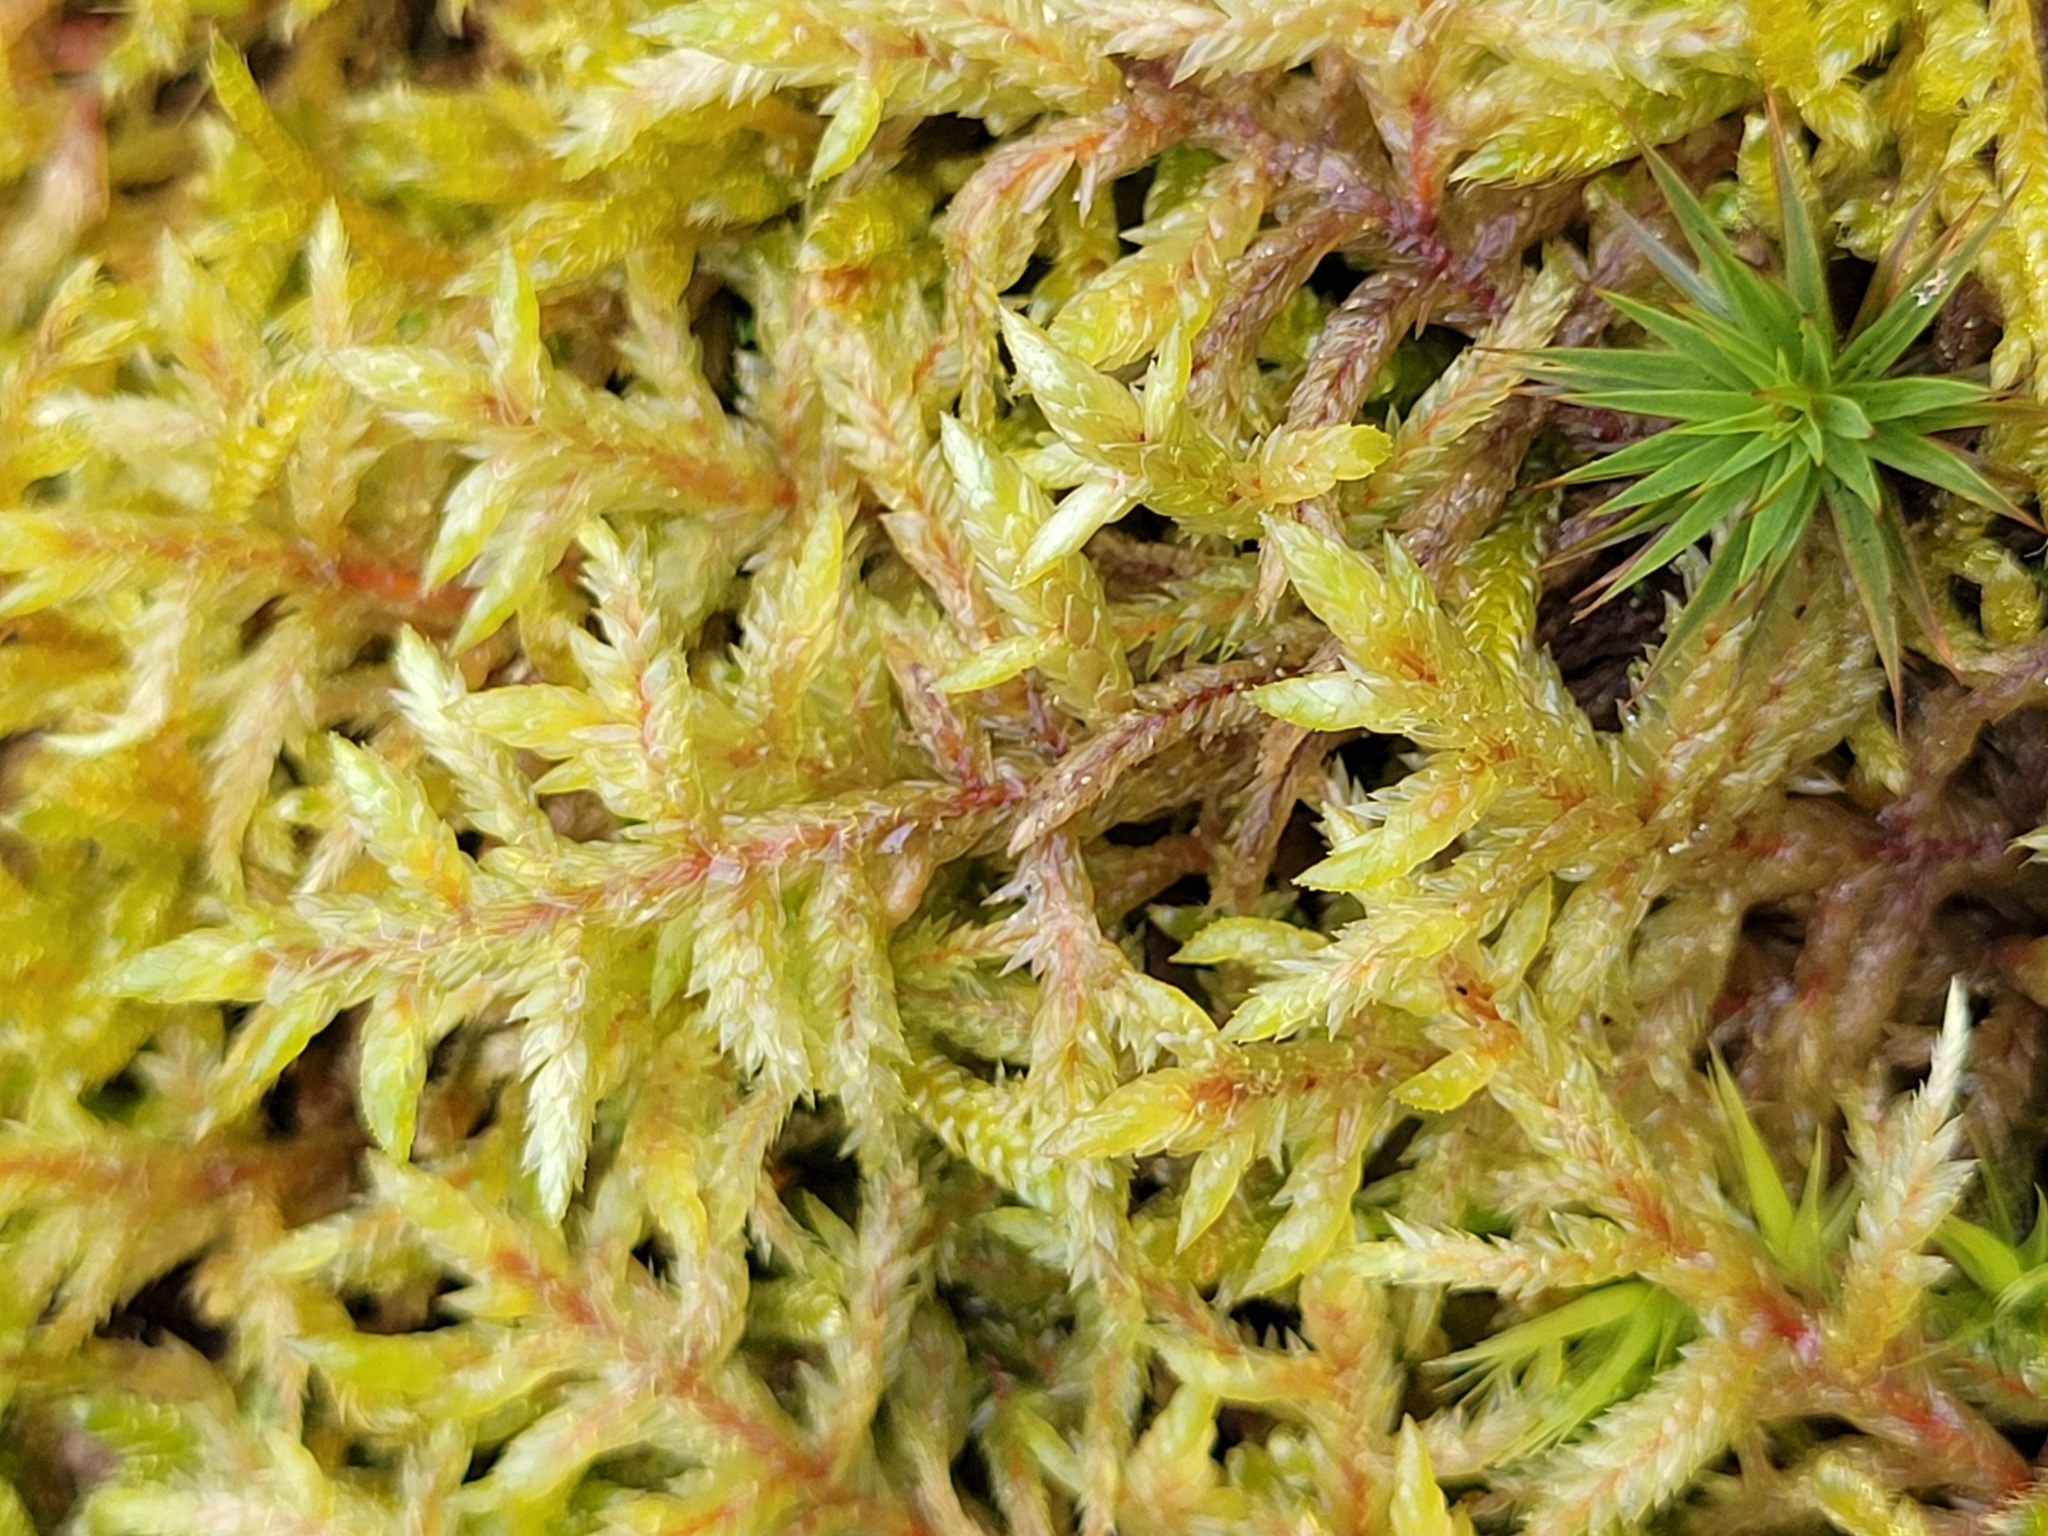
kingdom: Plantae
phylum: Bryophyta
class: Bryopsida
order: Hypnales
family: Hylocomiaceae
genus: Pleurozium
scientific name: Pleurozium schreberi
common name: Red-stemmed feather moss
